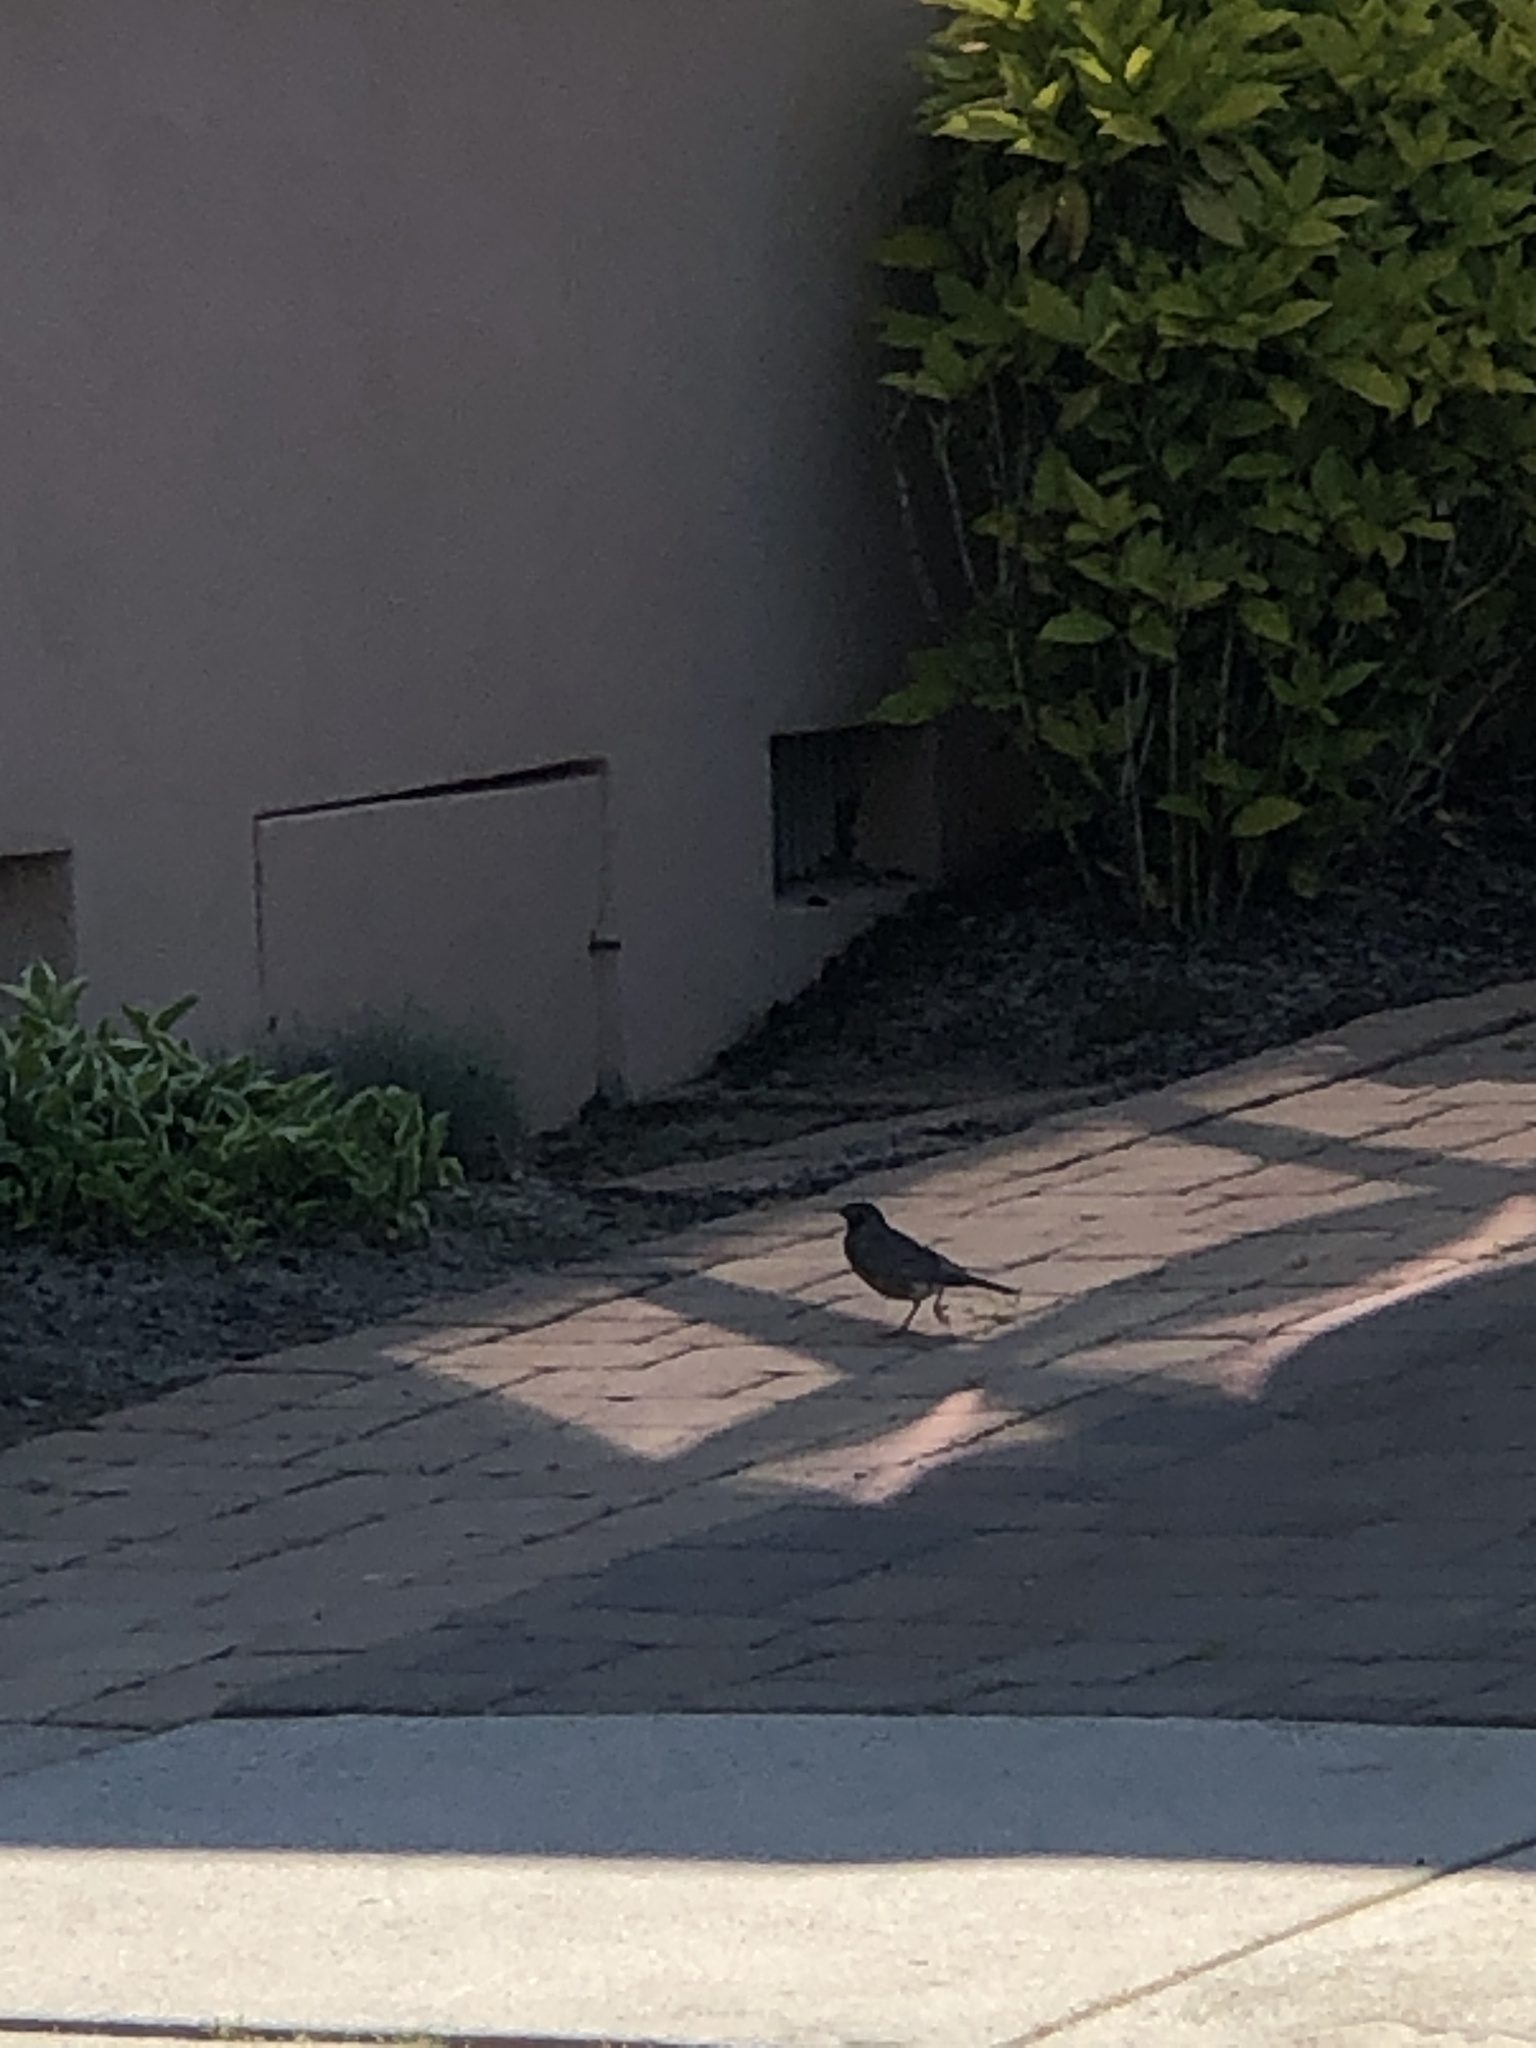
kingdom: Animalia
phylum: Chordata
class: Aves
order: Passeriformes
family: Turdidae
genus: Turdus
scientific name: Turdus migratorius
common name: American robin
